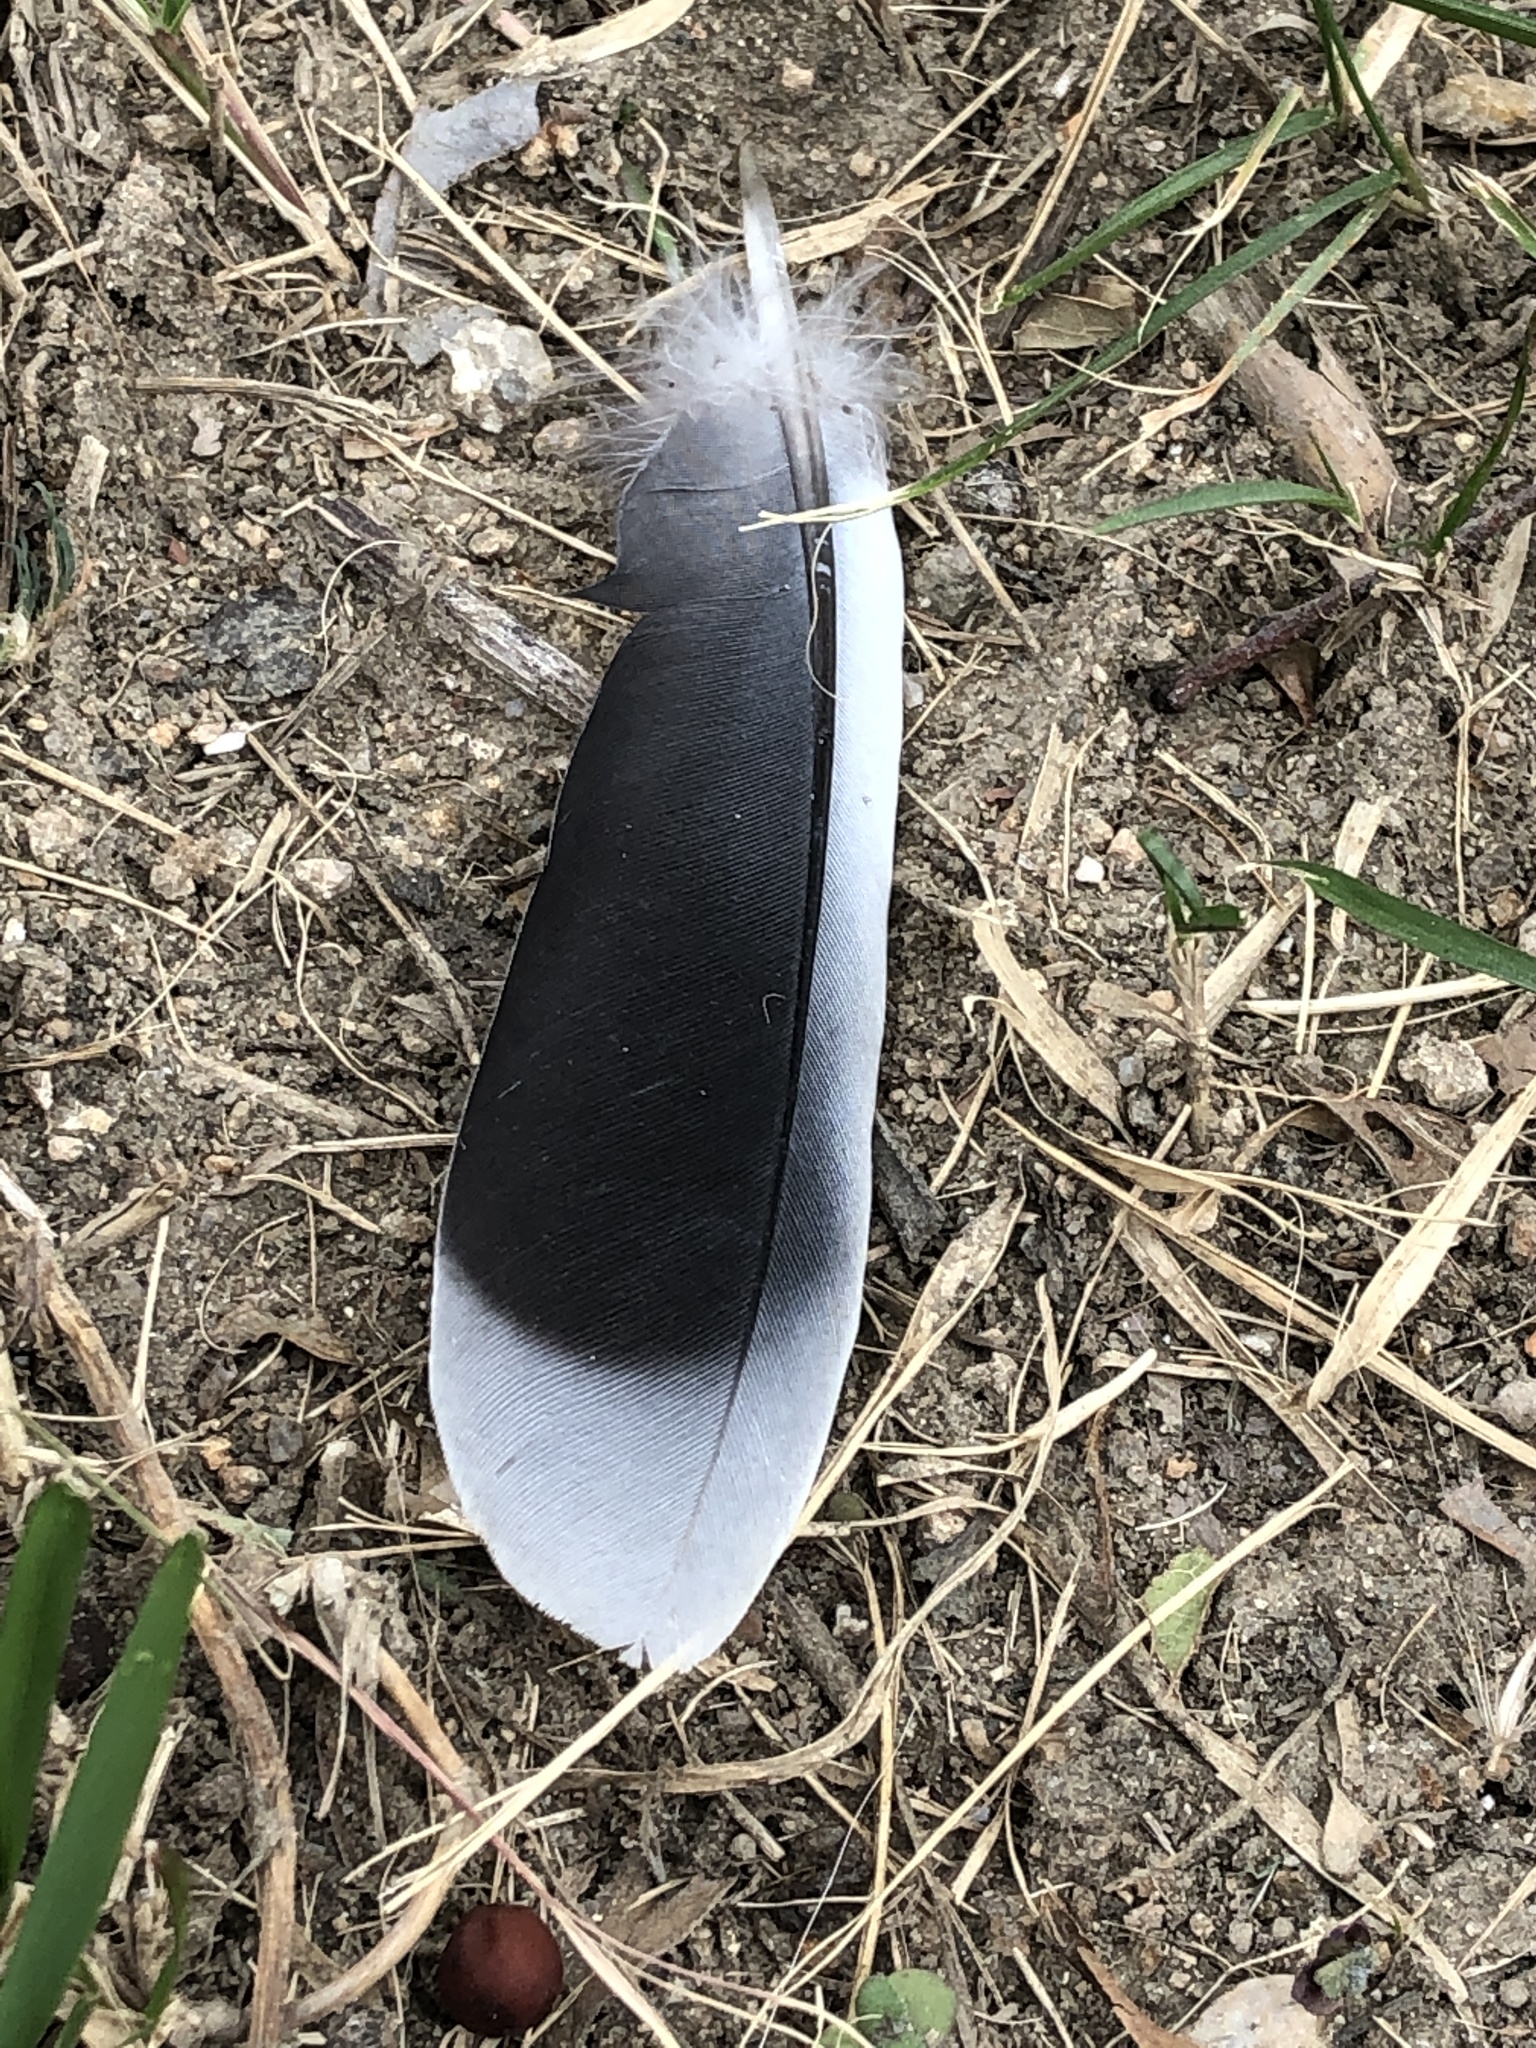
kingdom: Animalia
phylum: Chordata
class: Aves
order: Columbiformes
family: Columbidae
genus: Streptopelia
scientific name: Streptopelia orientalis
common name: Oriental turtle dove
